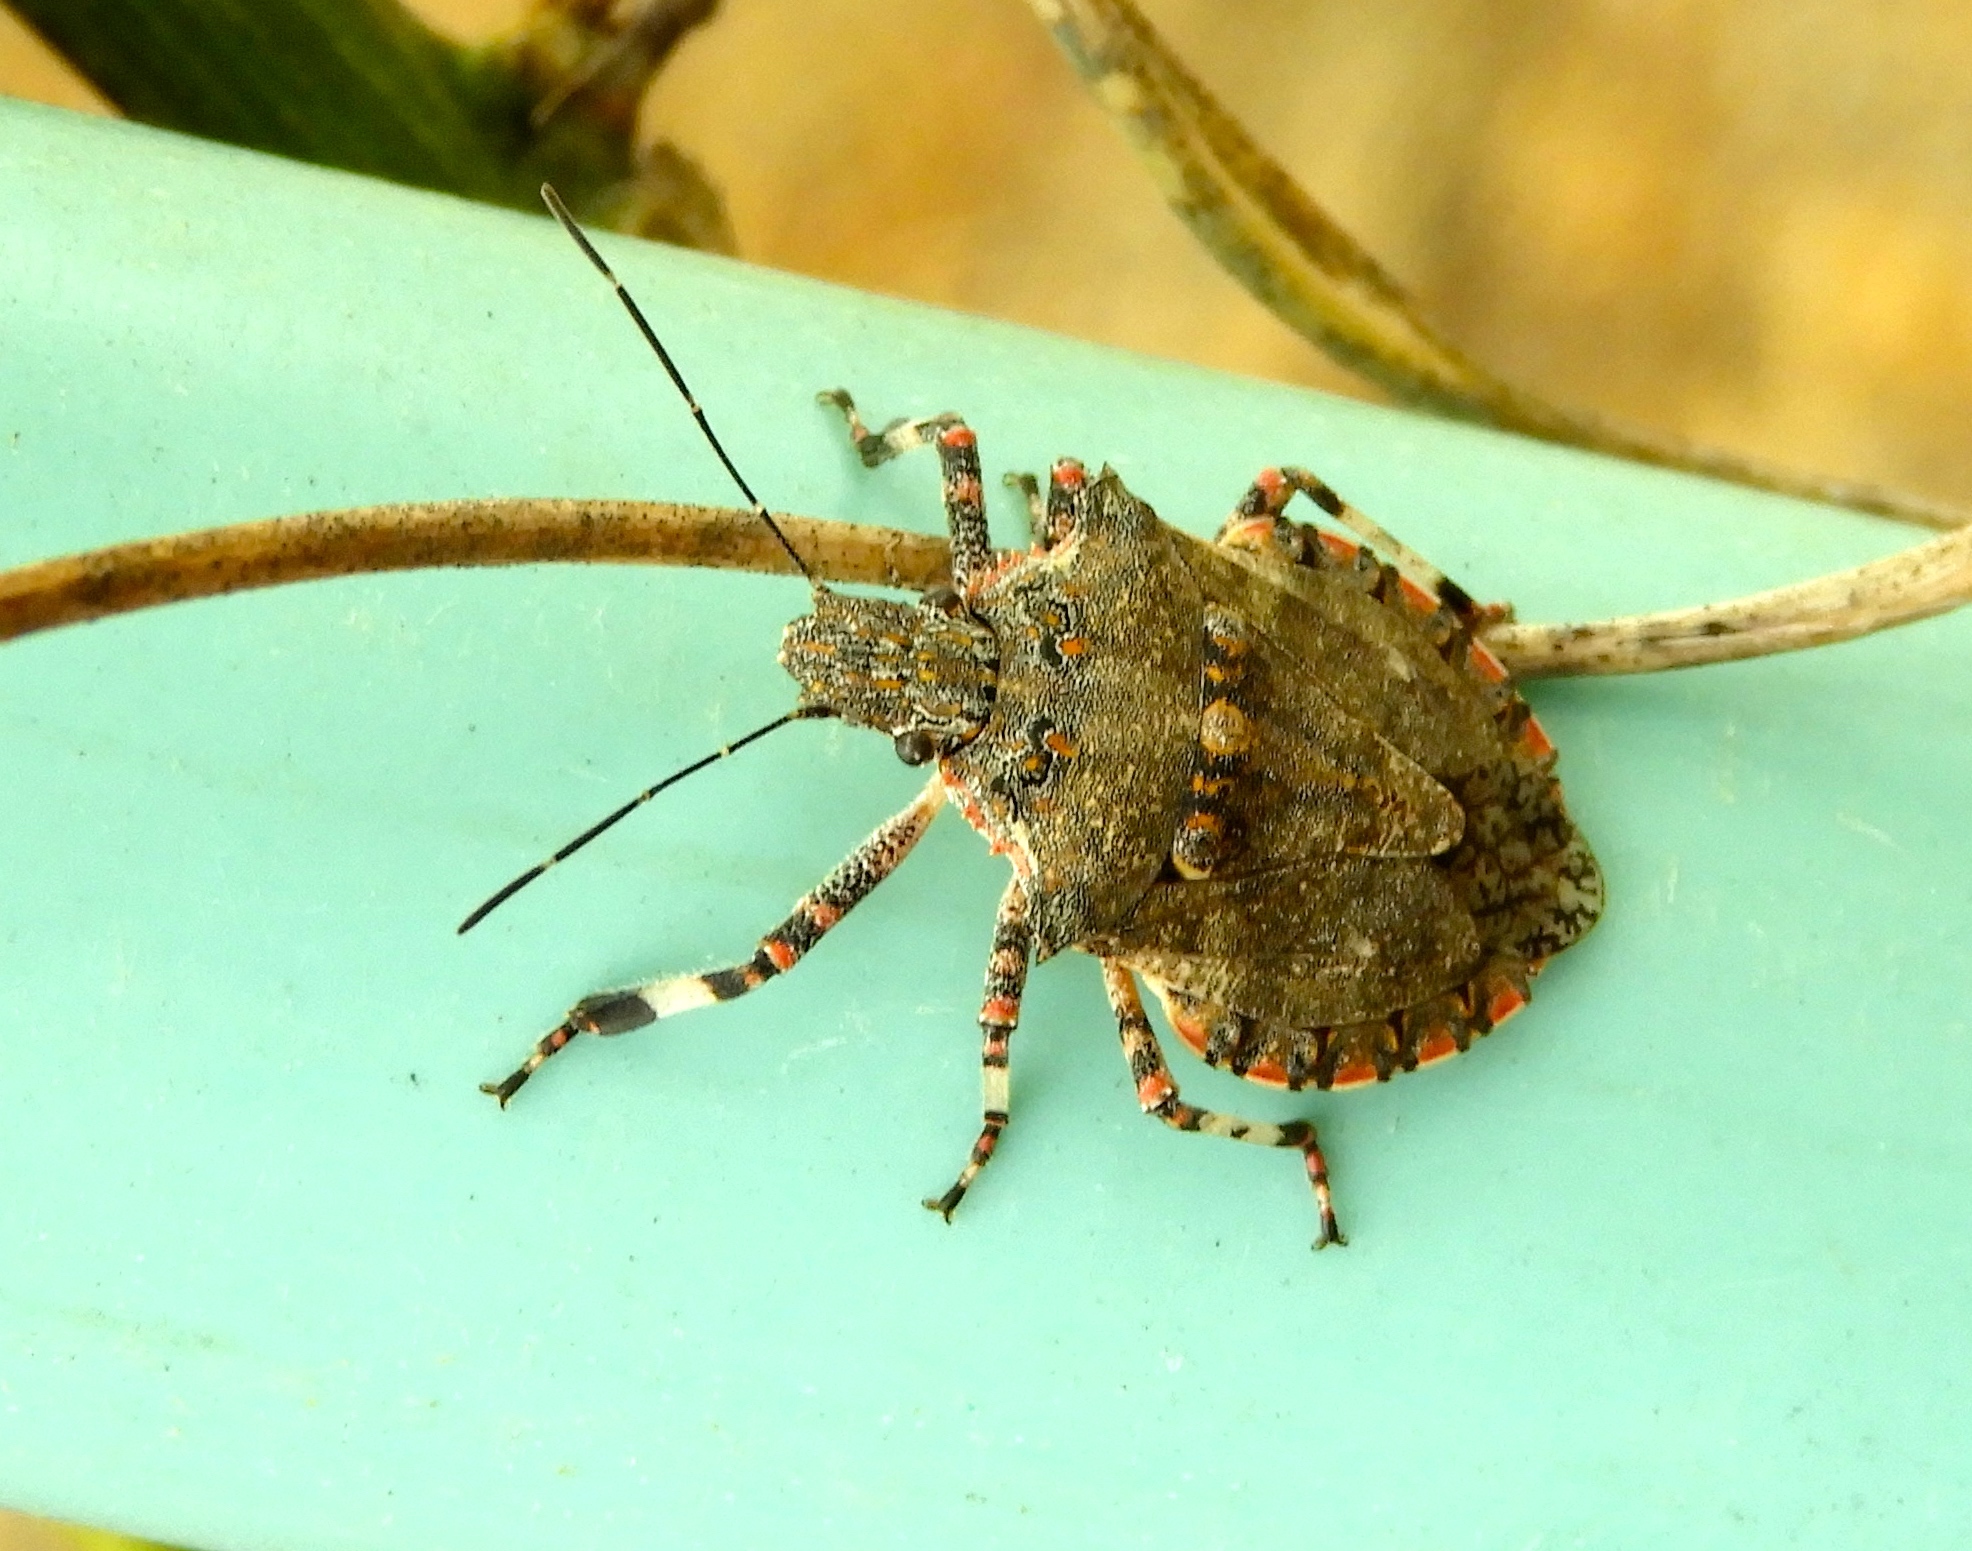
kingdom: Animalia
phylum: Arthropoda
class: Insecta
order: Hemiptera
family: Pentatomidae
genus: Brochymena
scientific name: Brochymena
